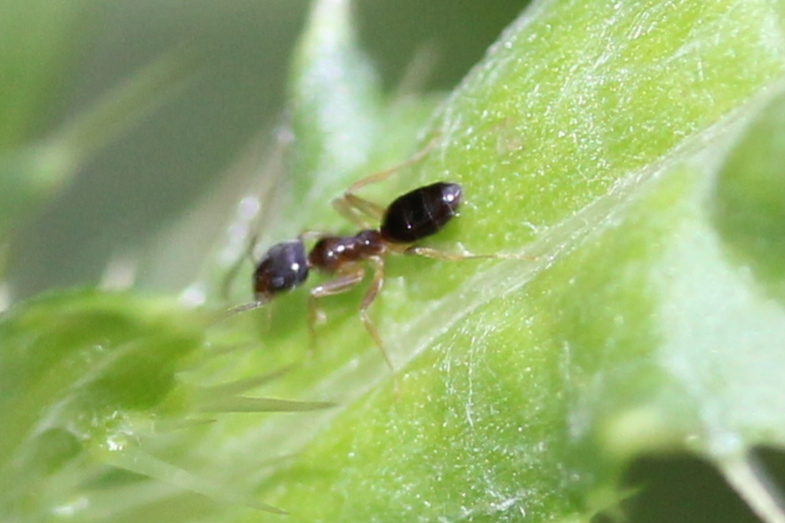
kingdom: Animalia
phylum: Arthropoda
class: Insecta
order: Hymenoptera
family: Formicidae
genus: Tapinoma
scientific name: Tapinoma sessile
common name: Odorous house ant
